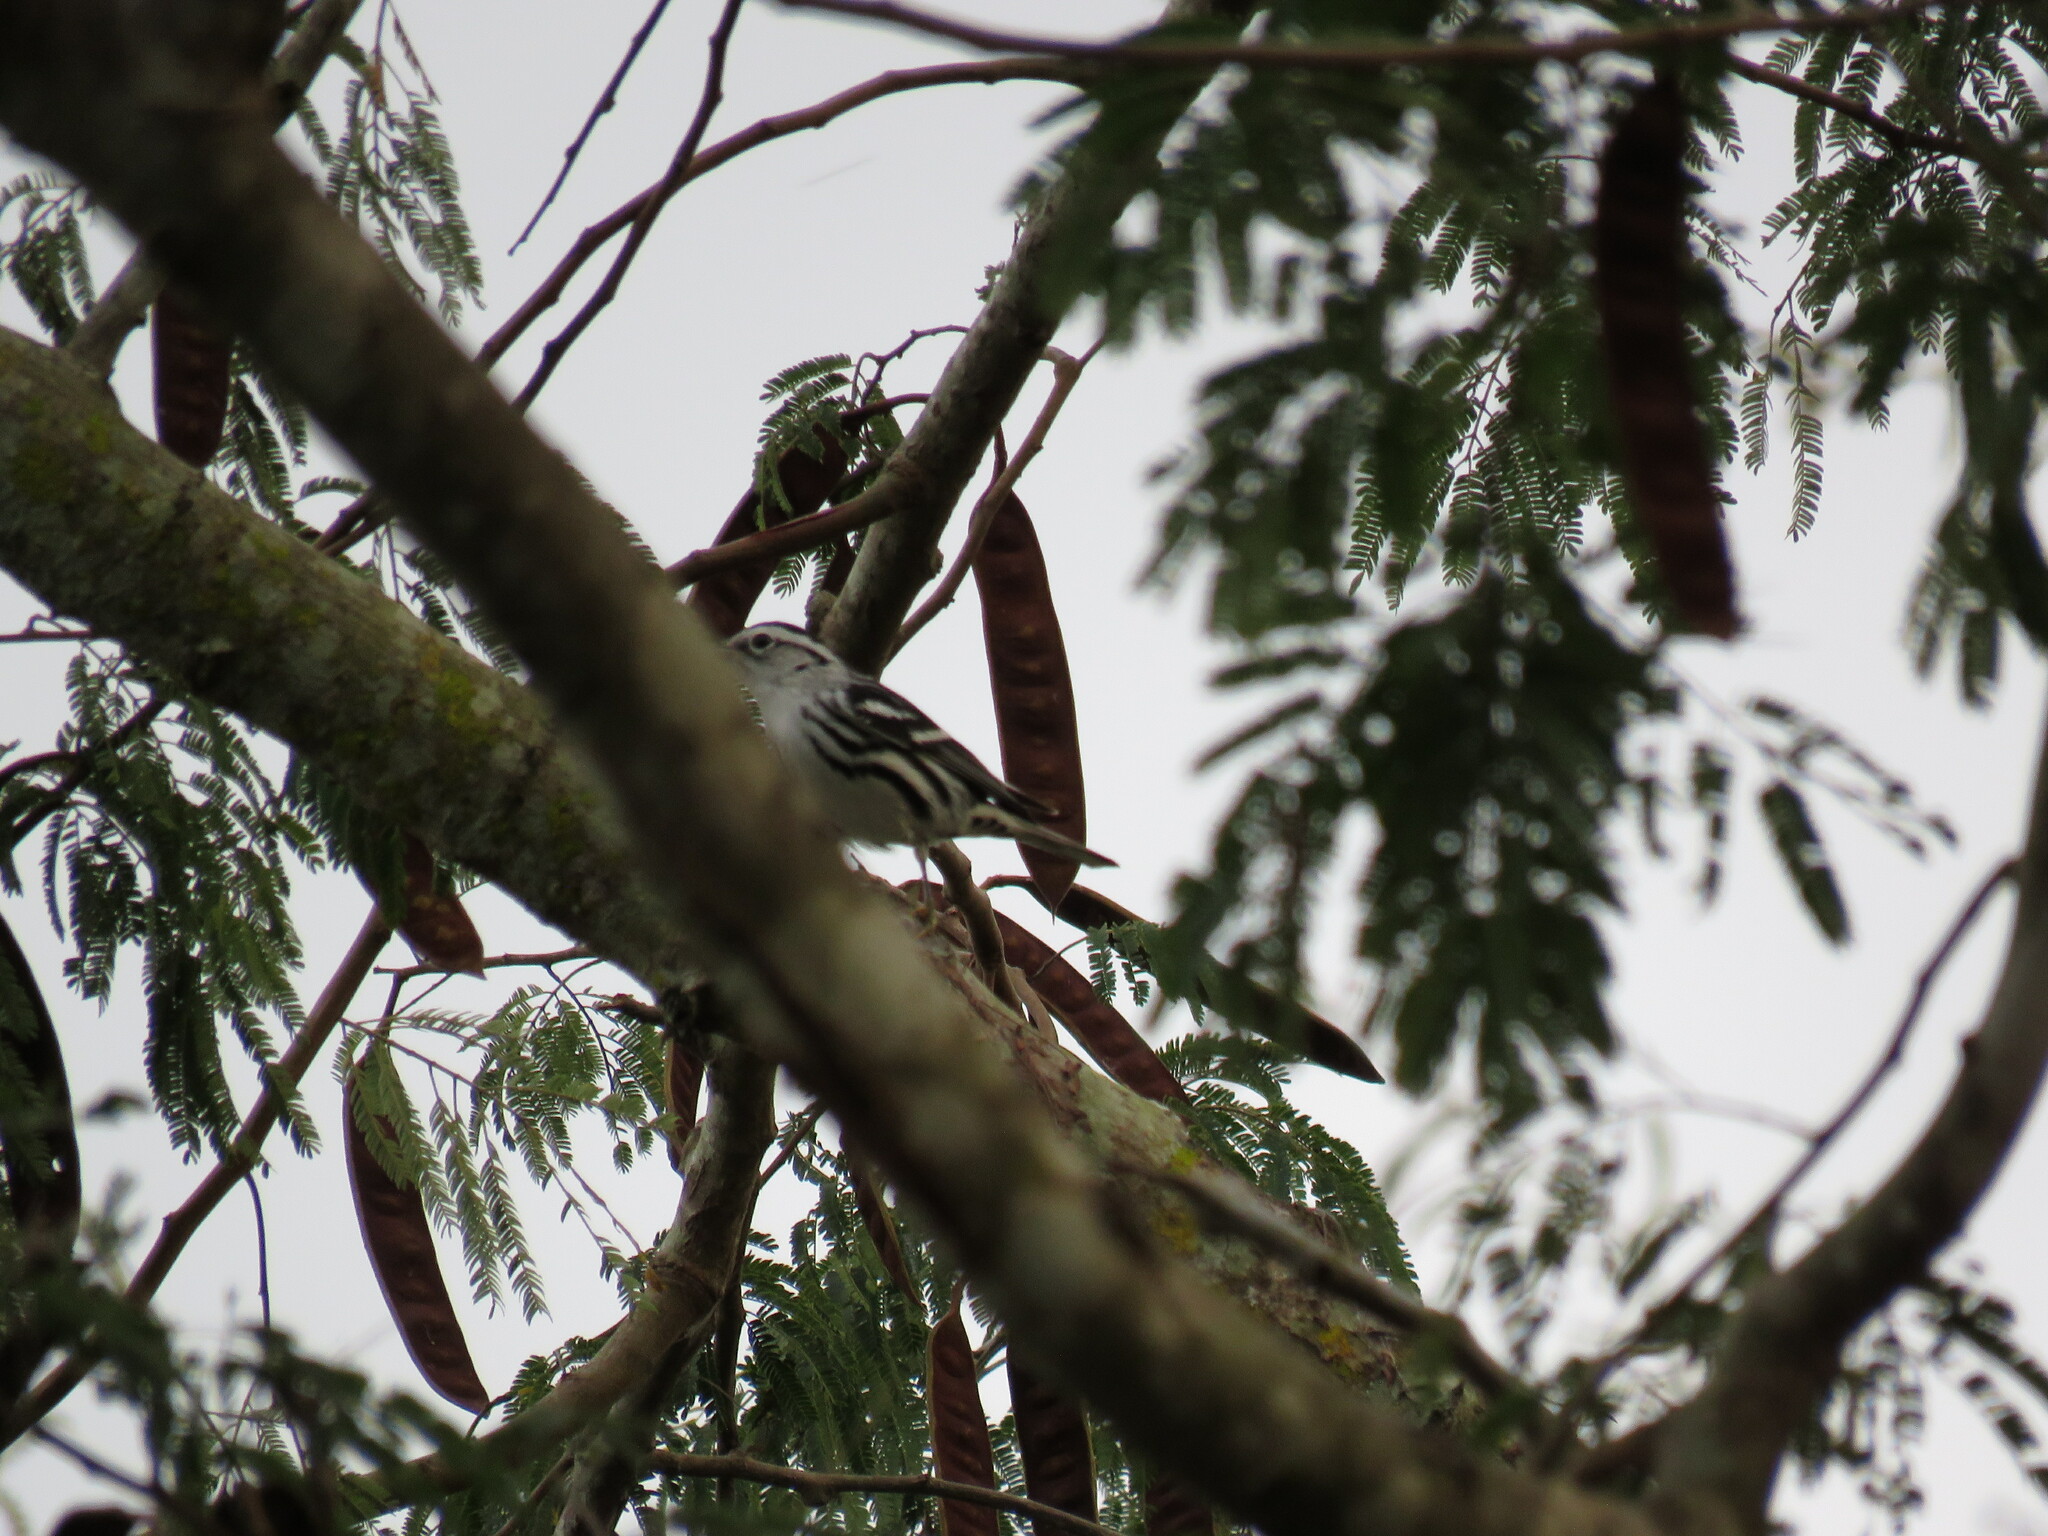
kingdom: Animalia
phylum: Chordata
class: Aves
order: Passeriformes
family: Parulidae
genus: Mniotilta
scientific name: Mniotilta varia
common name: Black-and-white warbler
